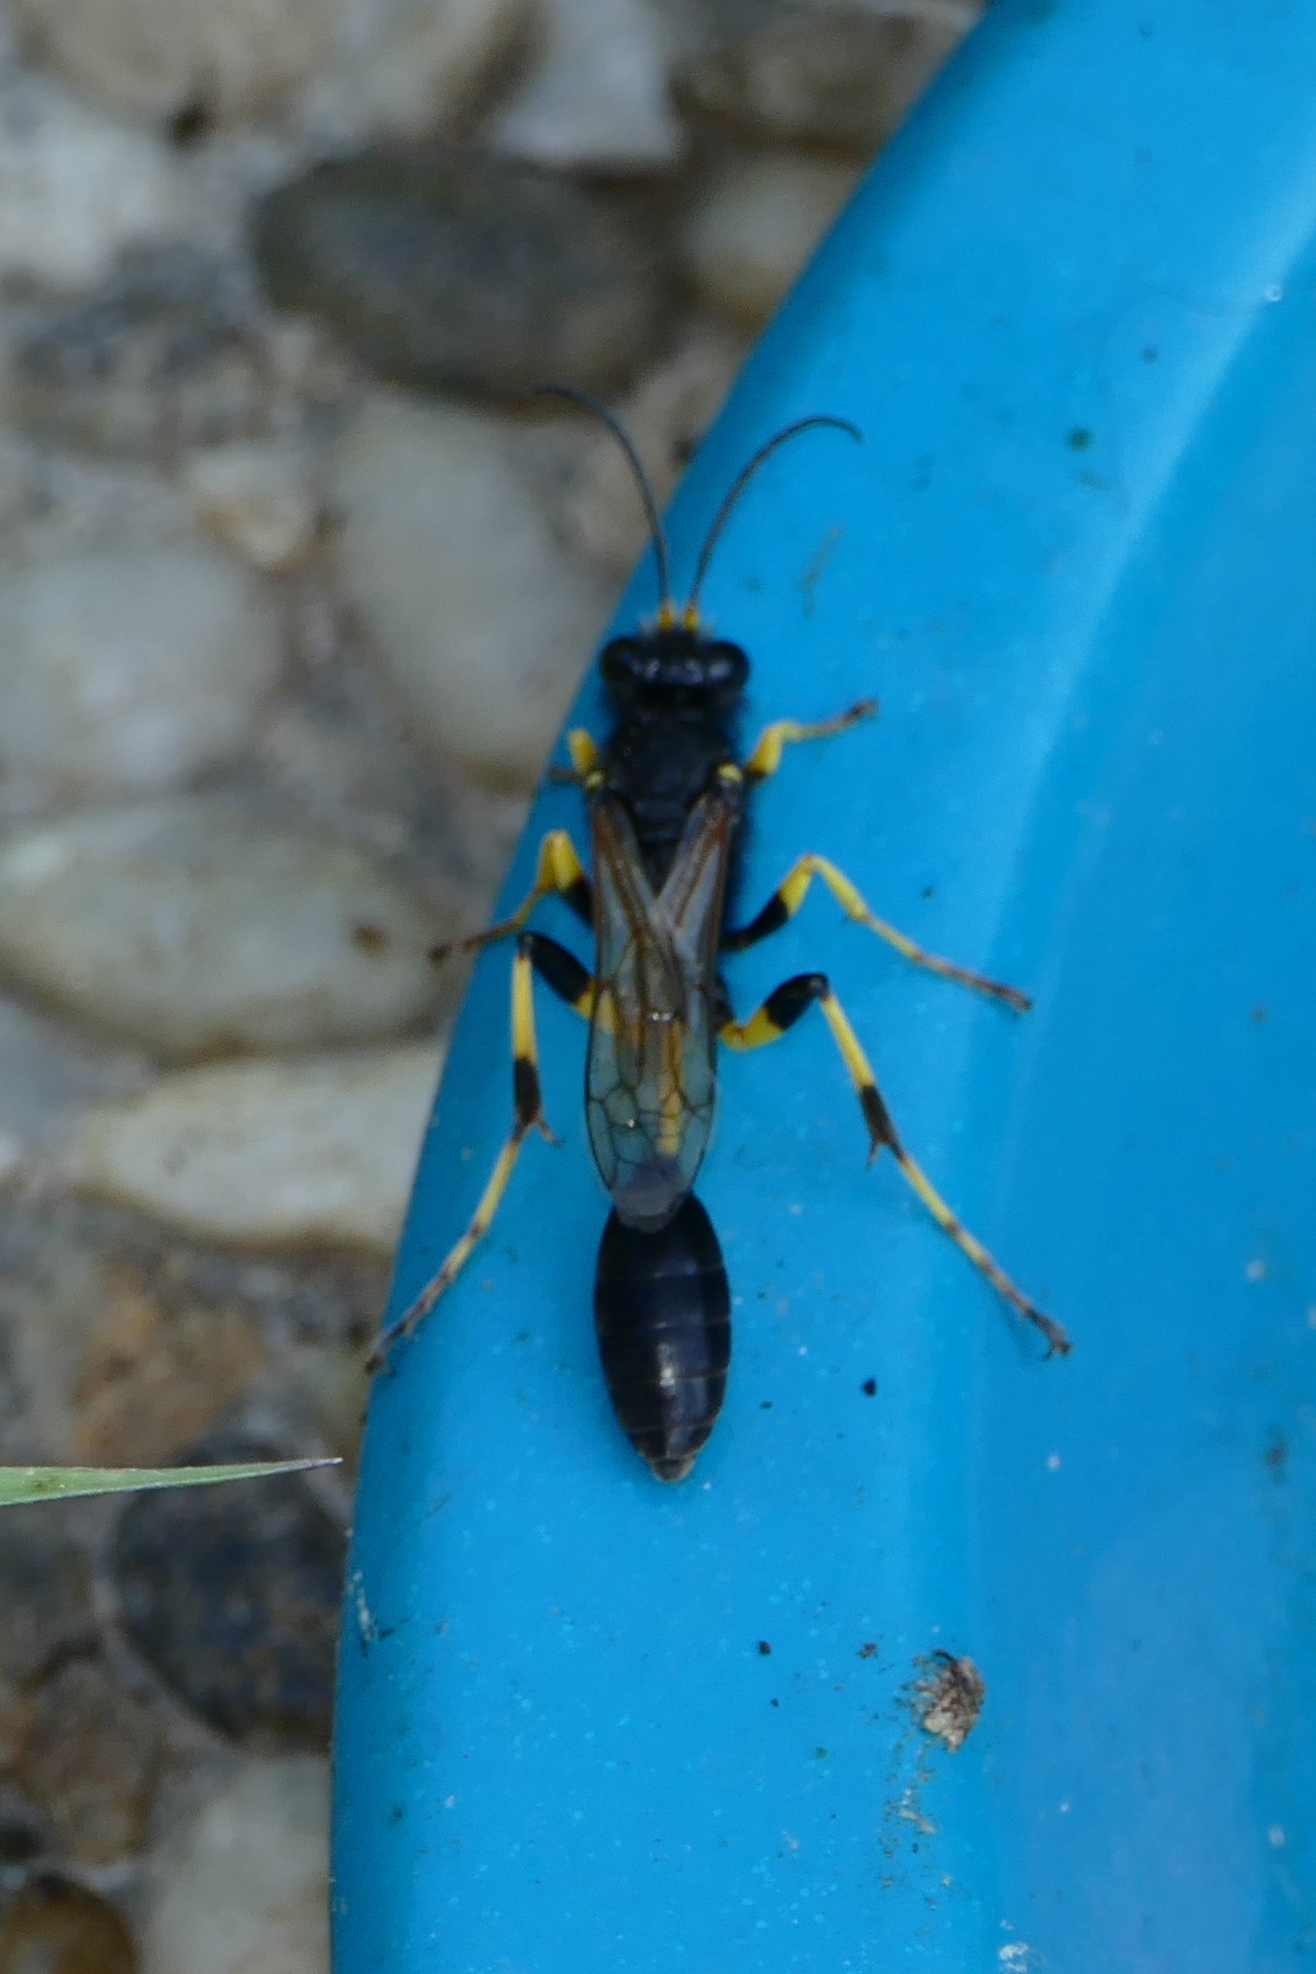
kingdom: Animalia
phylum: Arthropoda
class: Insecta
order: Hymenoptera
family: Sphecidae
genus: Sceliphron
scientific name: Sceliphron destillatorium
